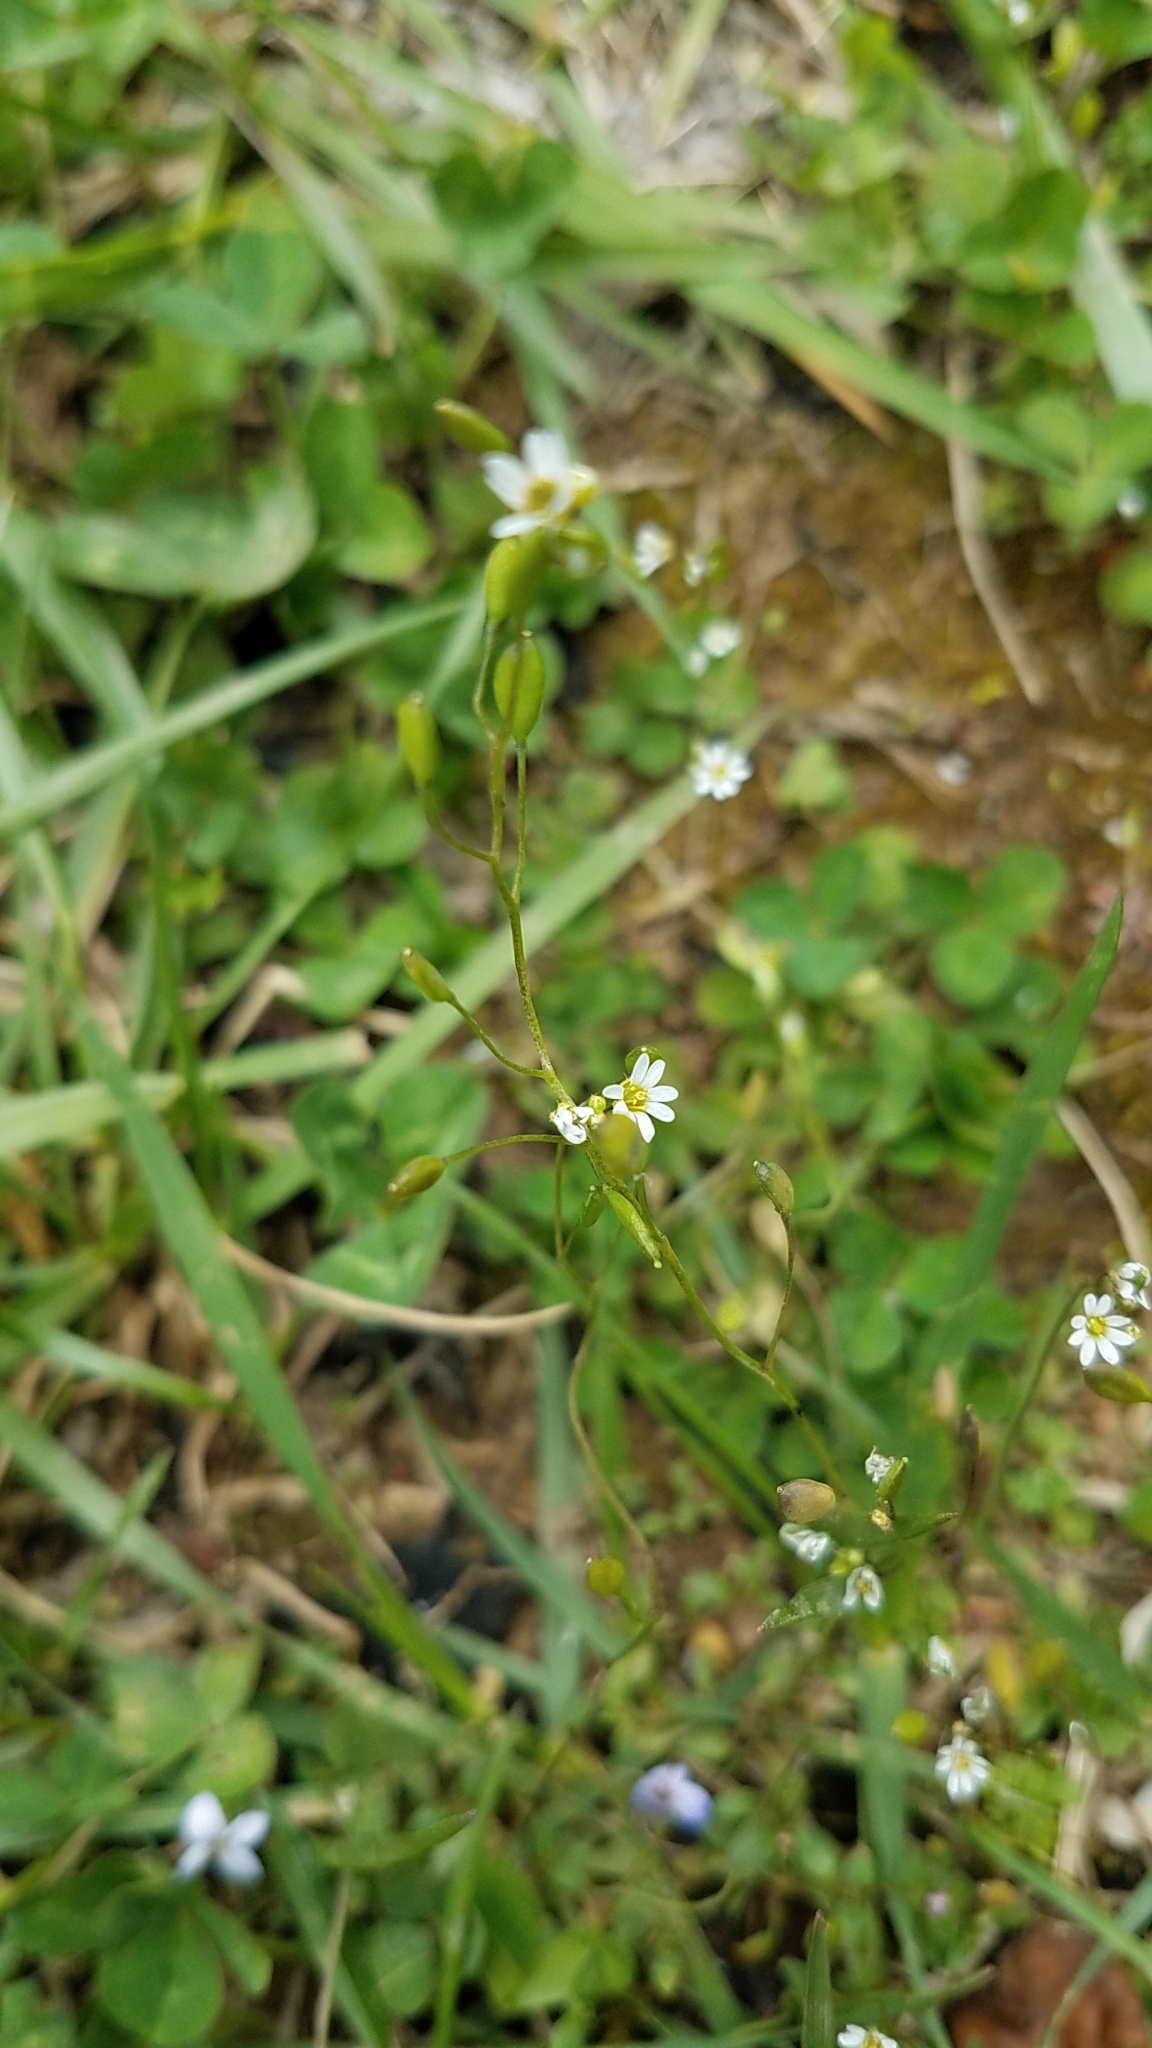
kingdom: Plantae
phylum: Tracheophyta
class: Magnoliopsida
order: Brassicales
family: Brassicaceae
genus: Draba
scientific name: Draba verna
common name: Spring draba
